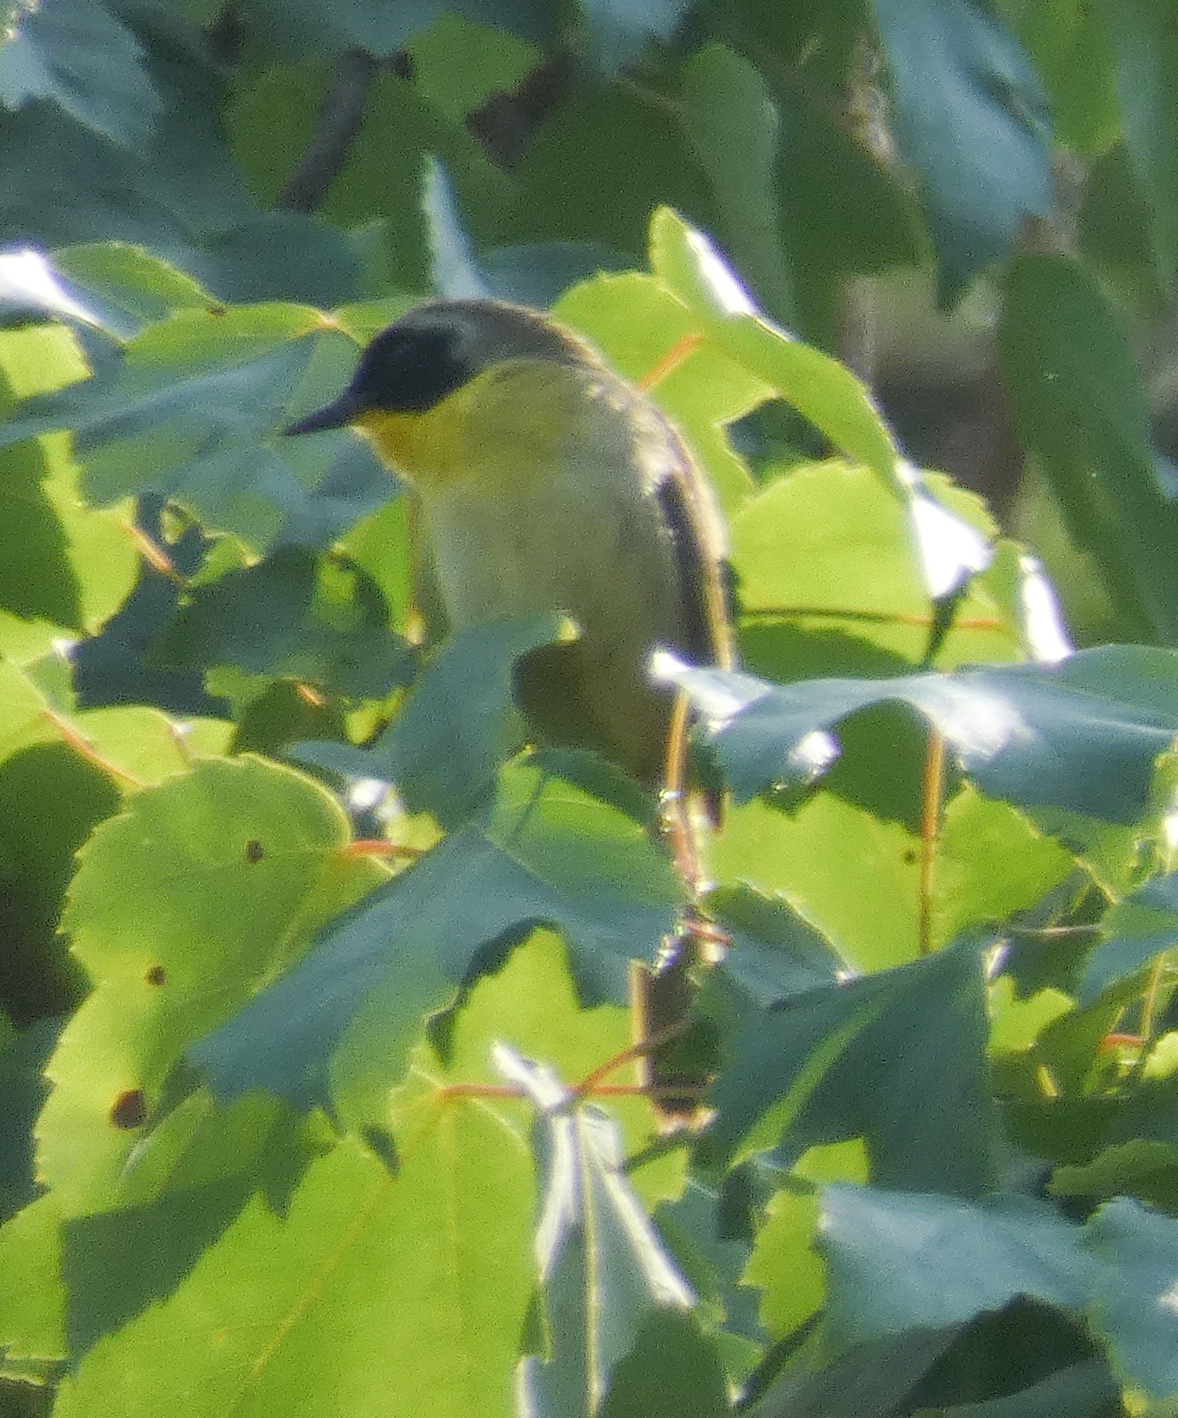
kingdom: Animalia
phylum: Chordata
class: Aves
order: Passeriformes
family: Parulidae
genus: Geothlypis
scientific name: Geothlypis trichas
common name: Common yellowthroat
